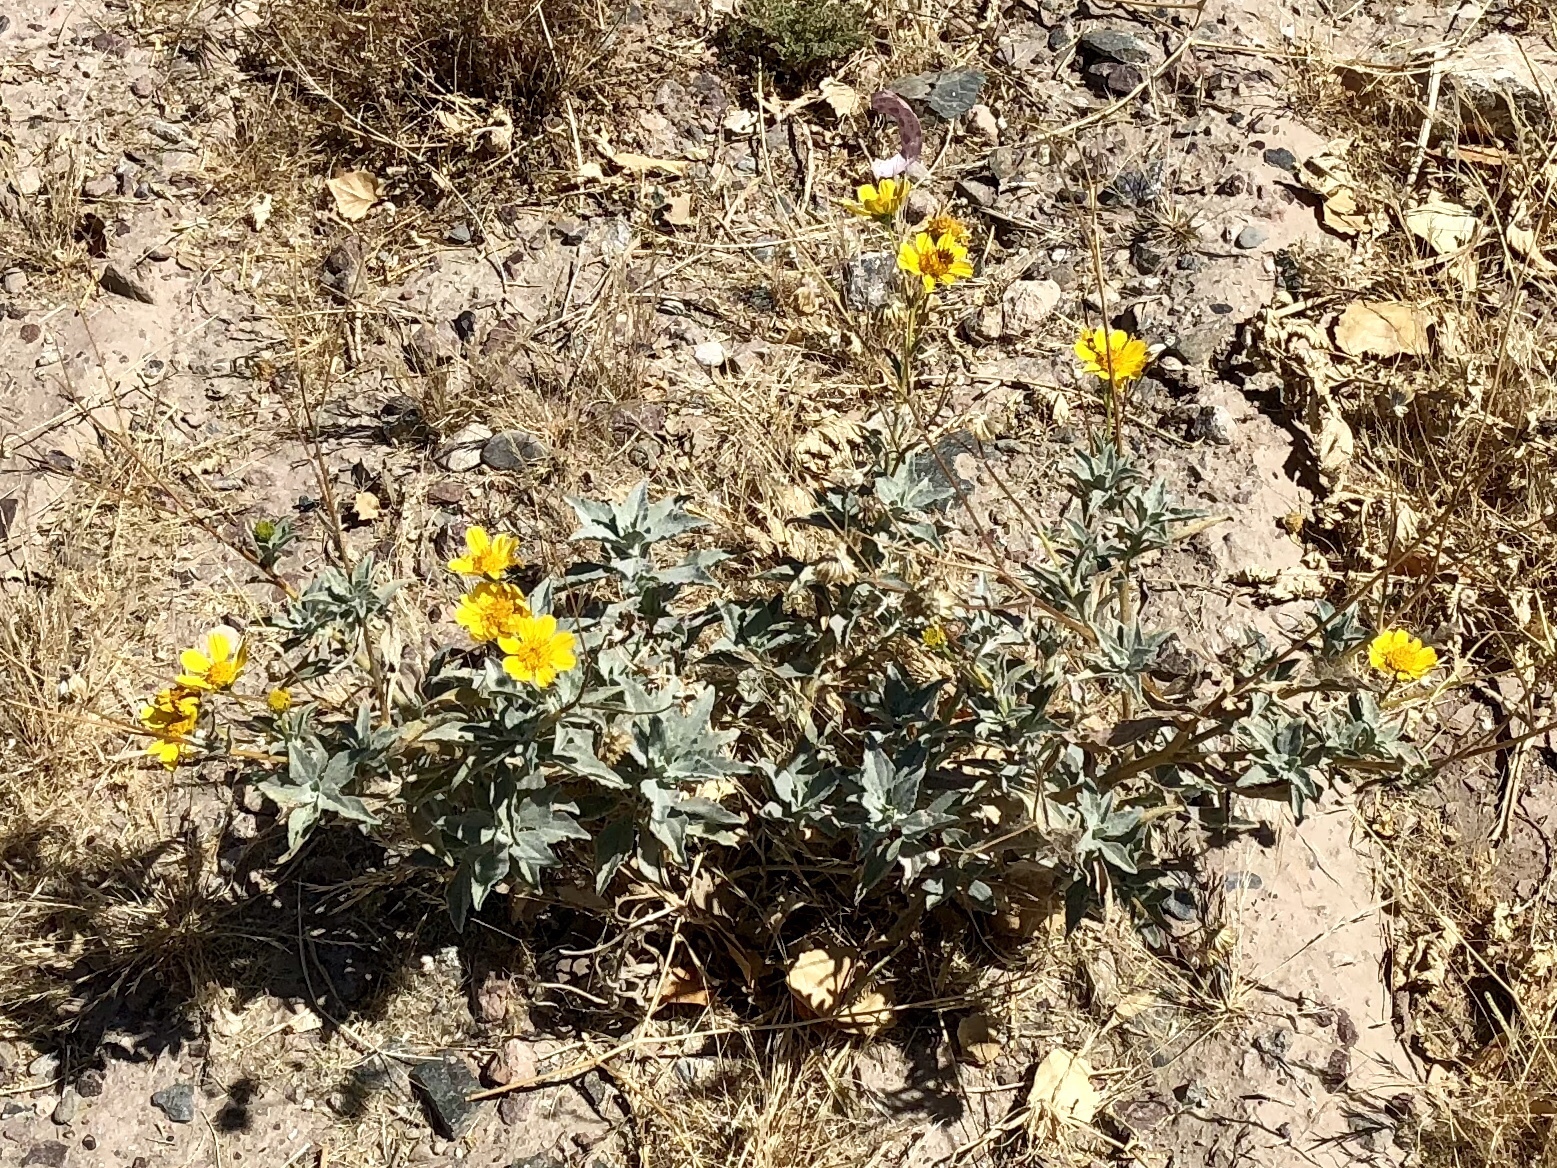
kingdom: Plantae
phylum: Tracheophyta
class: Magnoliopsida
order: Asterales
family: Asteraceae
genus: Encelia
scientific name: Encelia farinosa
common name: Brittlebush
